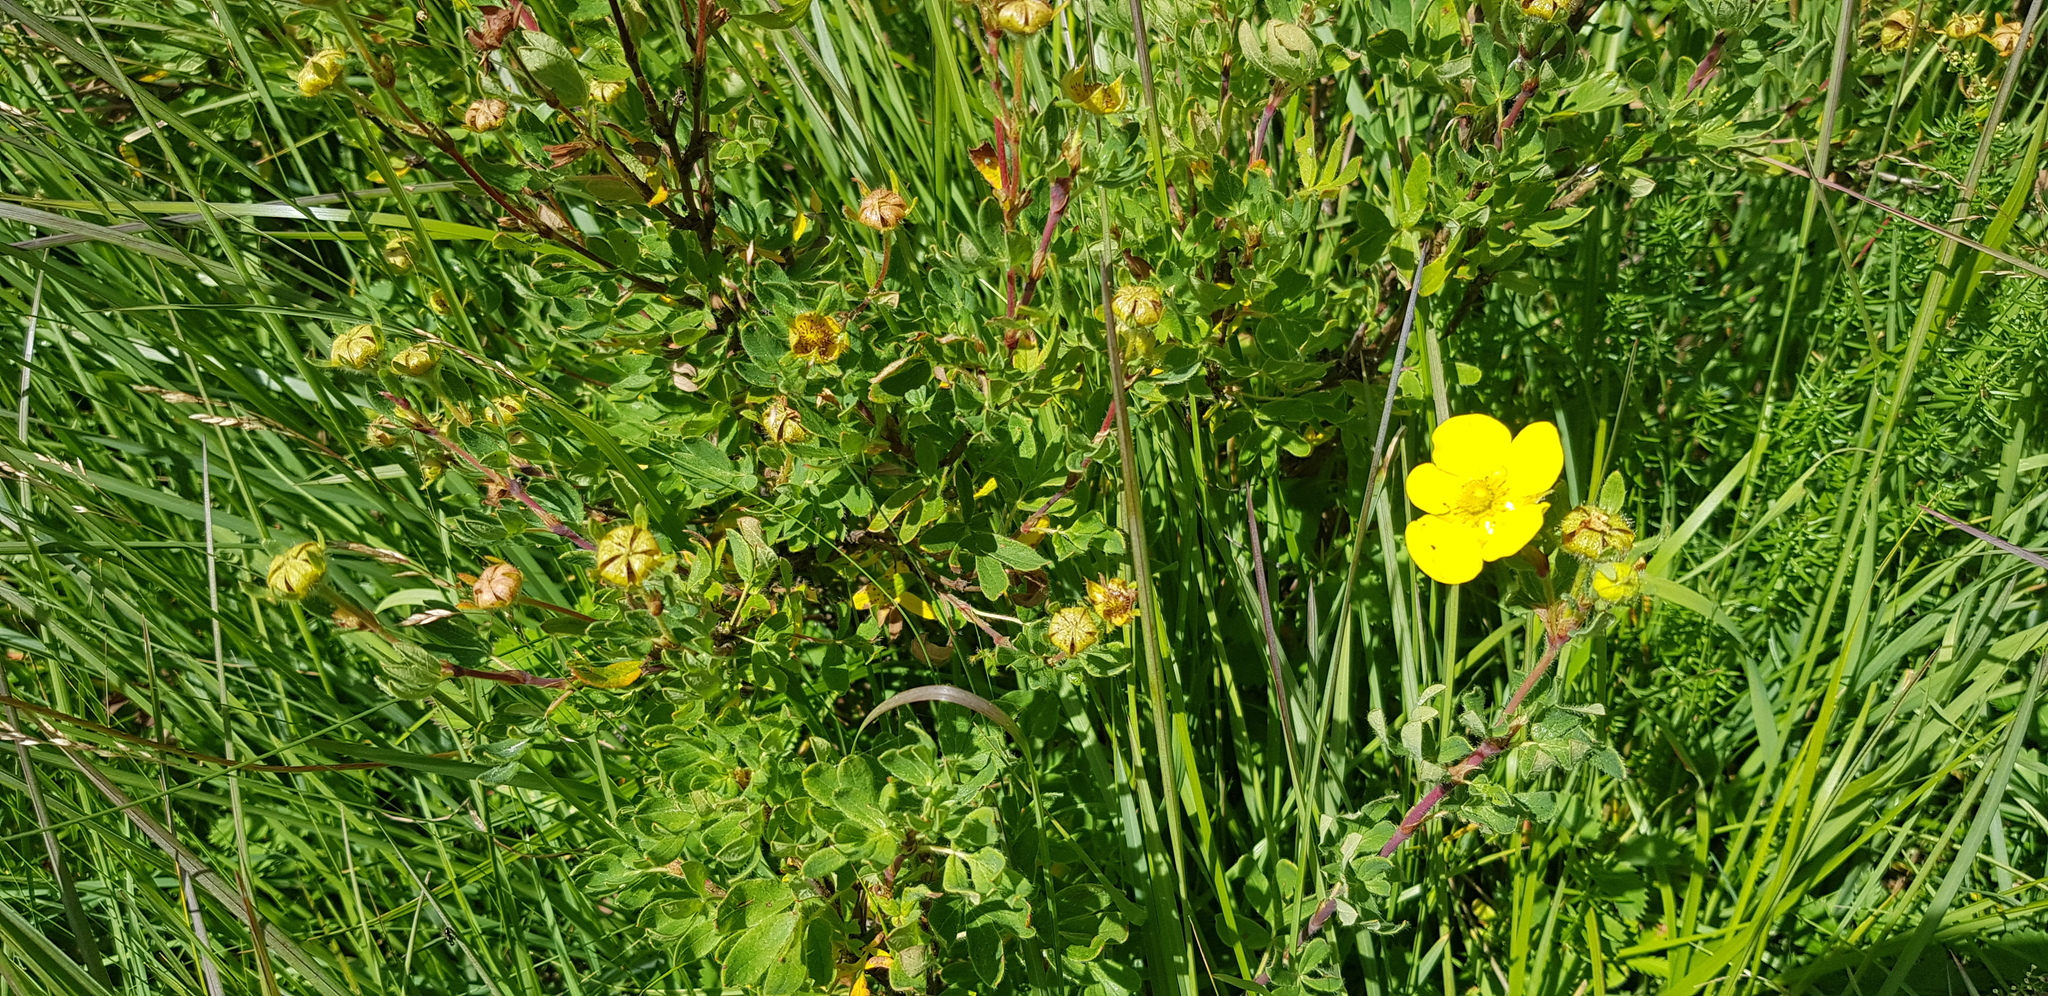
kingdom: Plantae
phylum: Tracheophyta
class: Magnoliopsida
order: Rosales
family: Rosaceae
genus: Dasiphora
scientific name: Dasiphora fruticosa
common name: Shrubby cinquefoil
